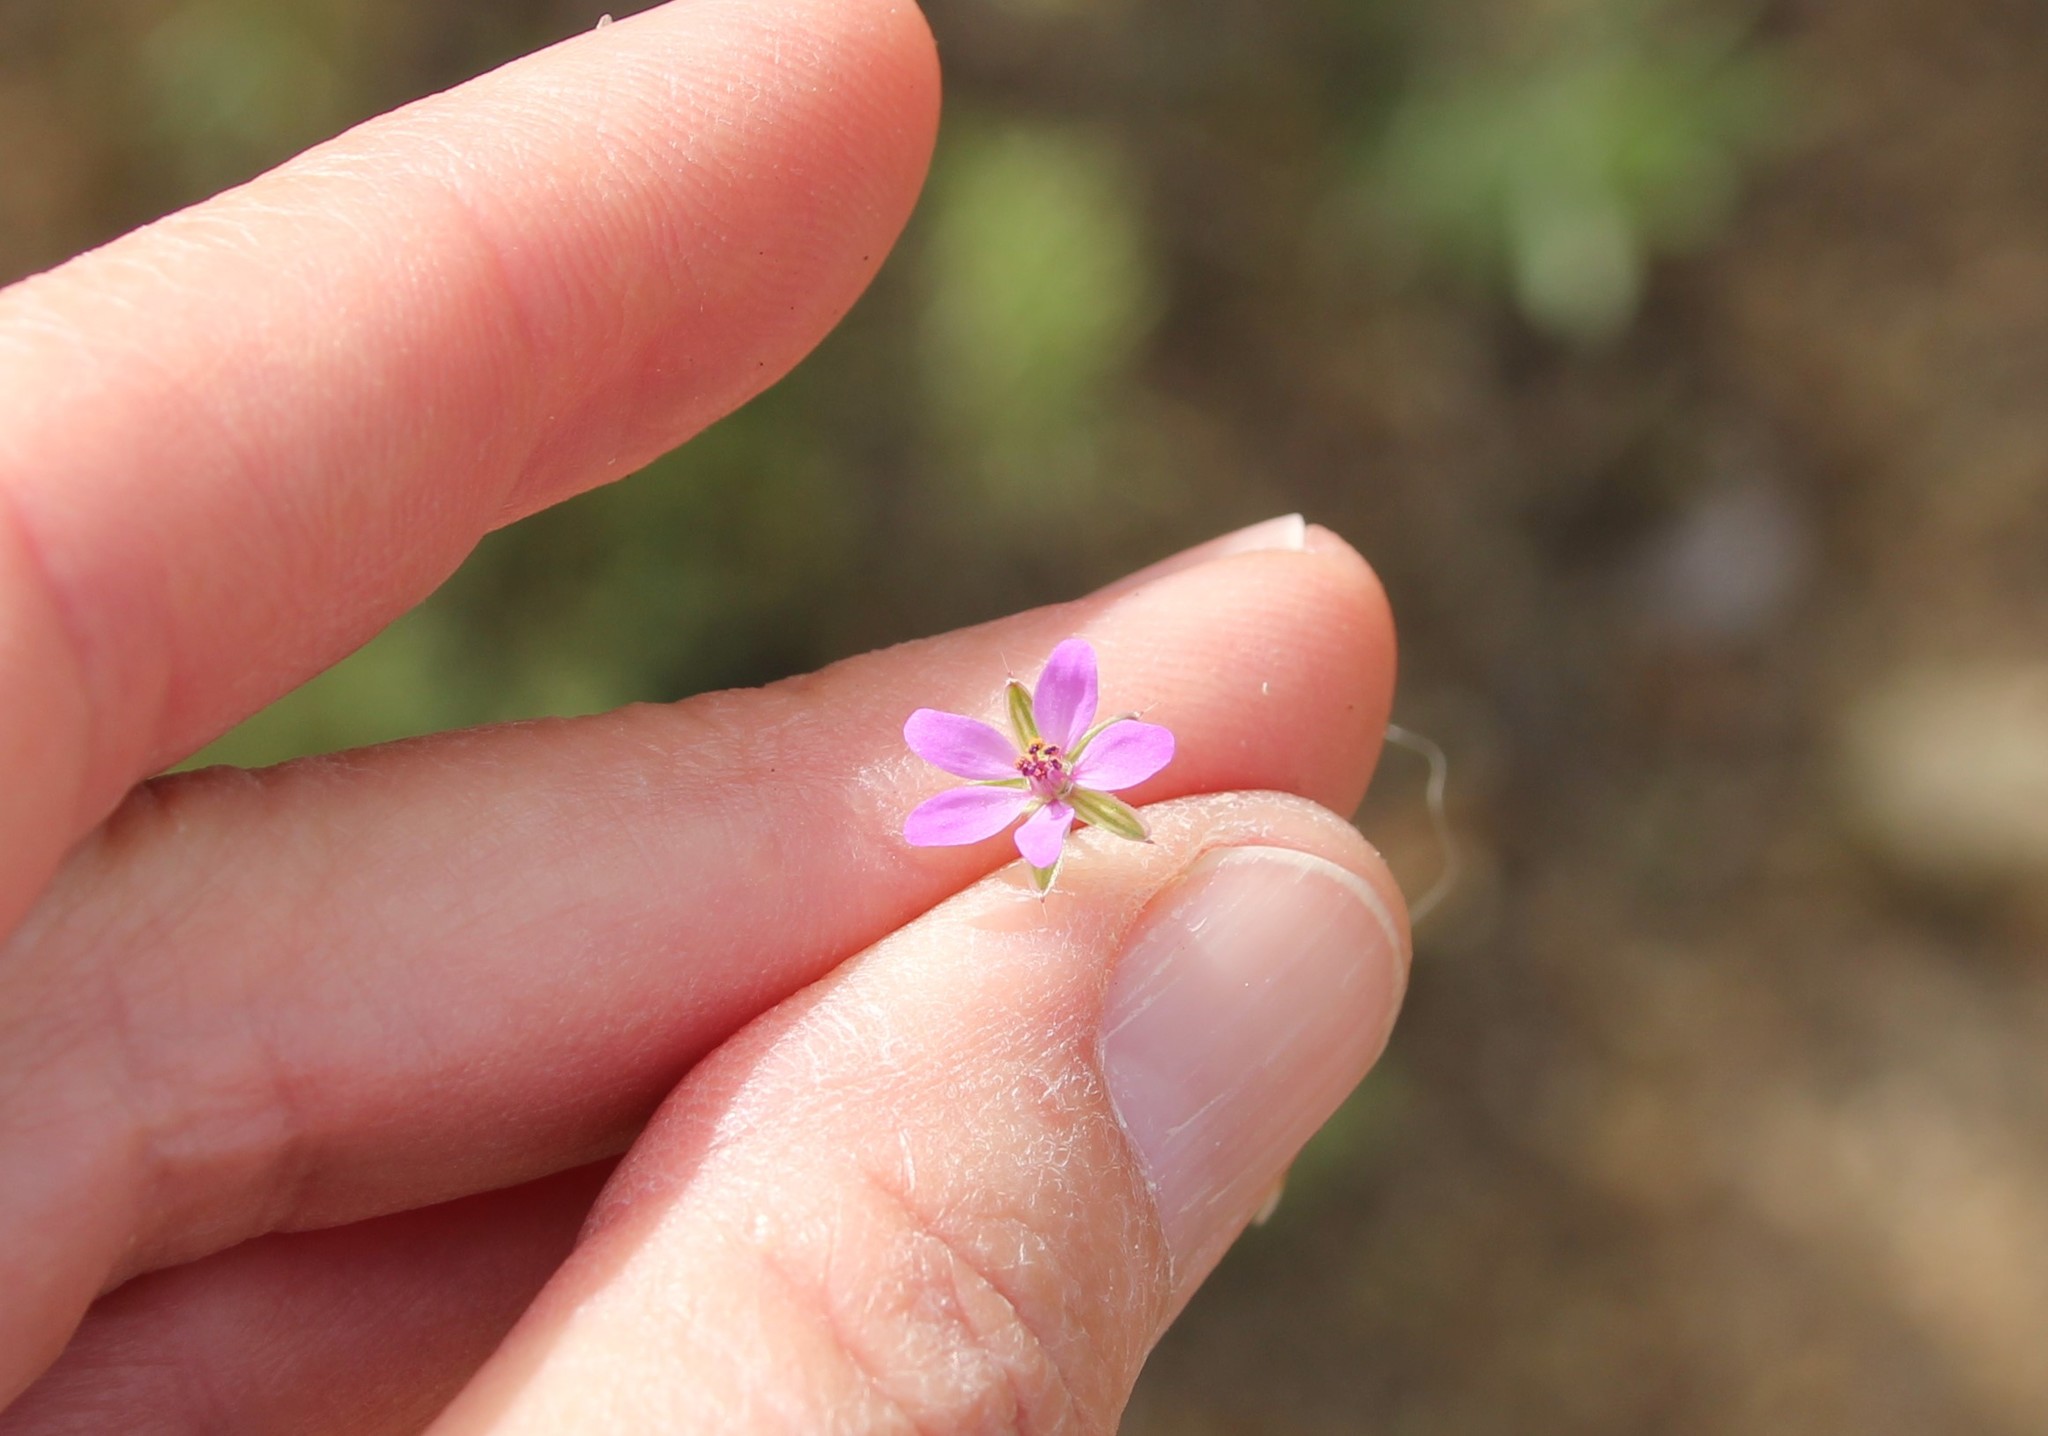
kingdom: Plantae
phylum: Tracheophyta
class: Magnoliopsida
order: Geraniales
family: Geraniaceae
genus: Erodium
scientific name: Erodium cicutarium
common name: Common stork's-bill
